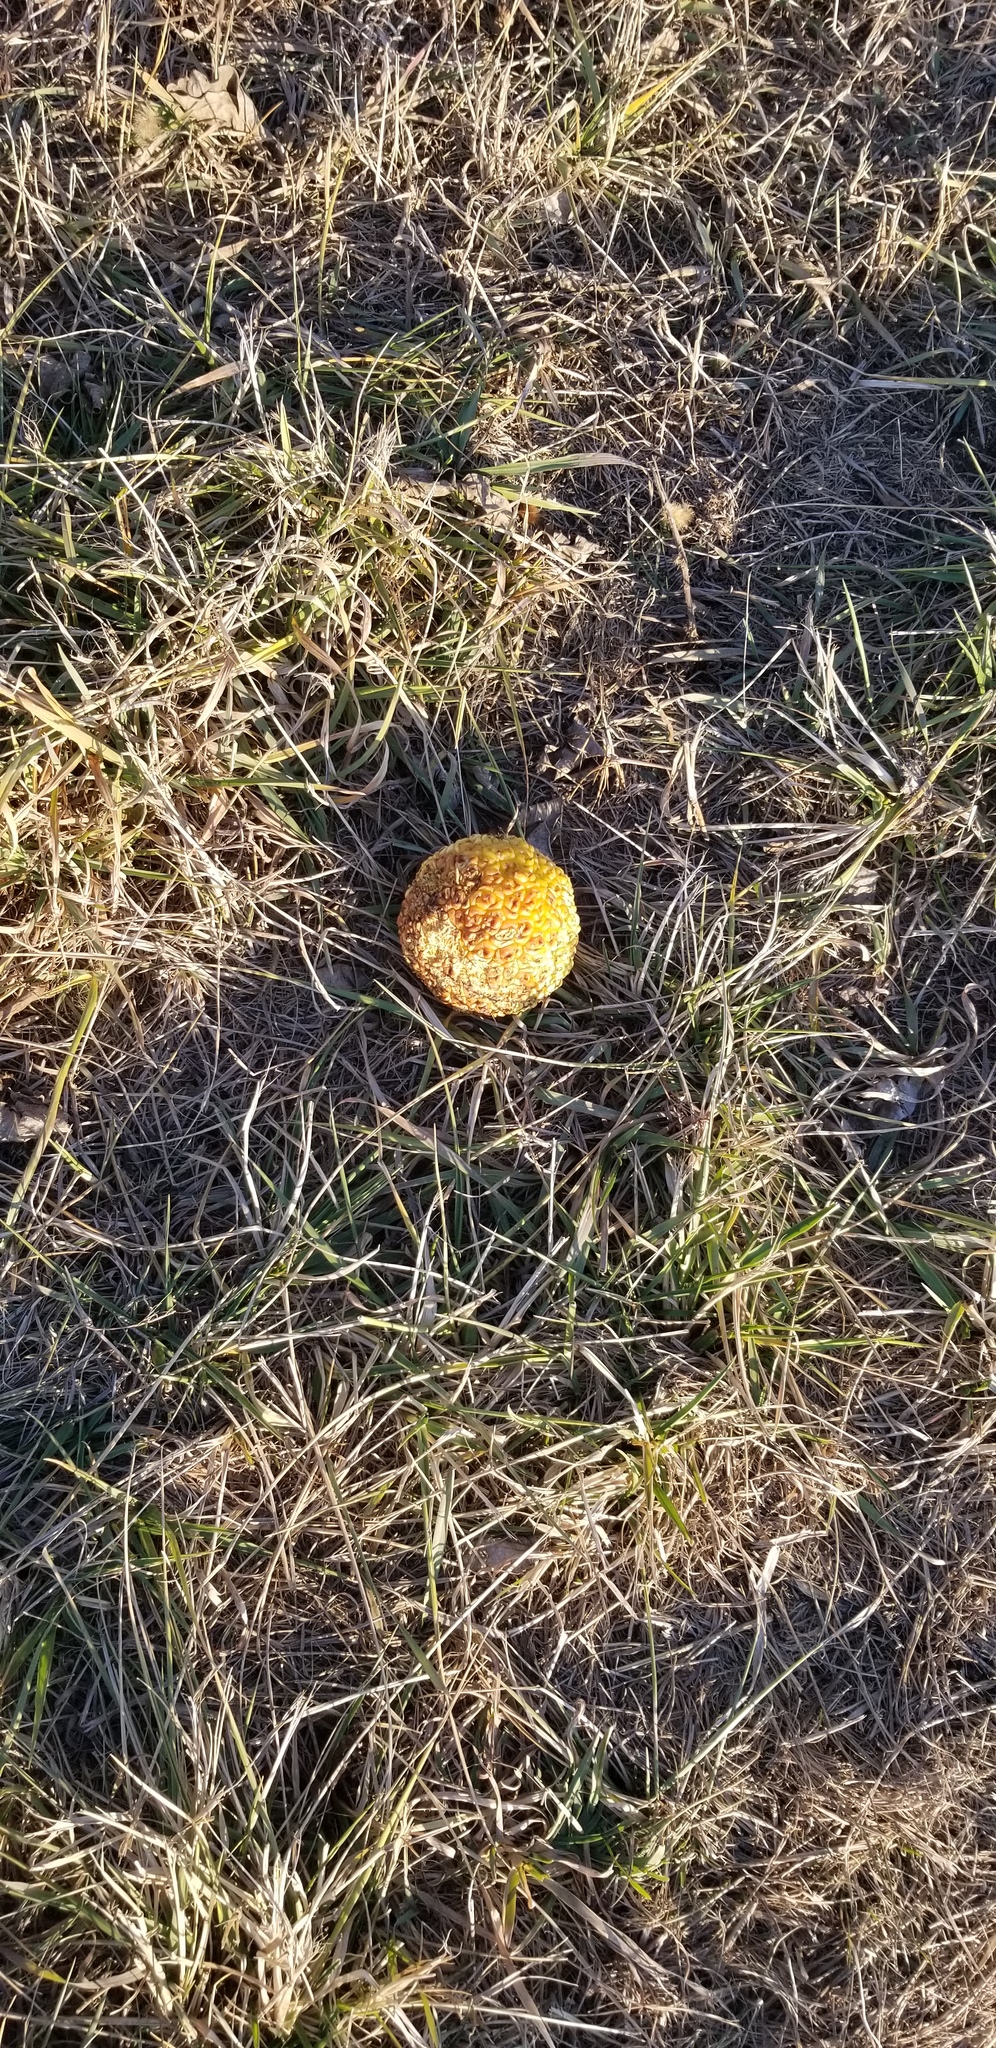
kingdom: Plantae
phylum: Tracheophyta
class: Magnoliopsida
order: Rosales
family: Moraceae
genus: Maclura
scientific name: Maclura pomifera
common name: Osage-orange
